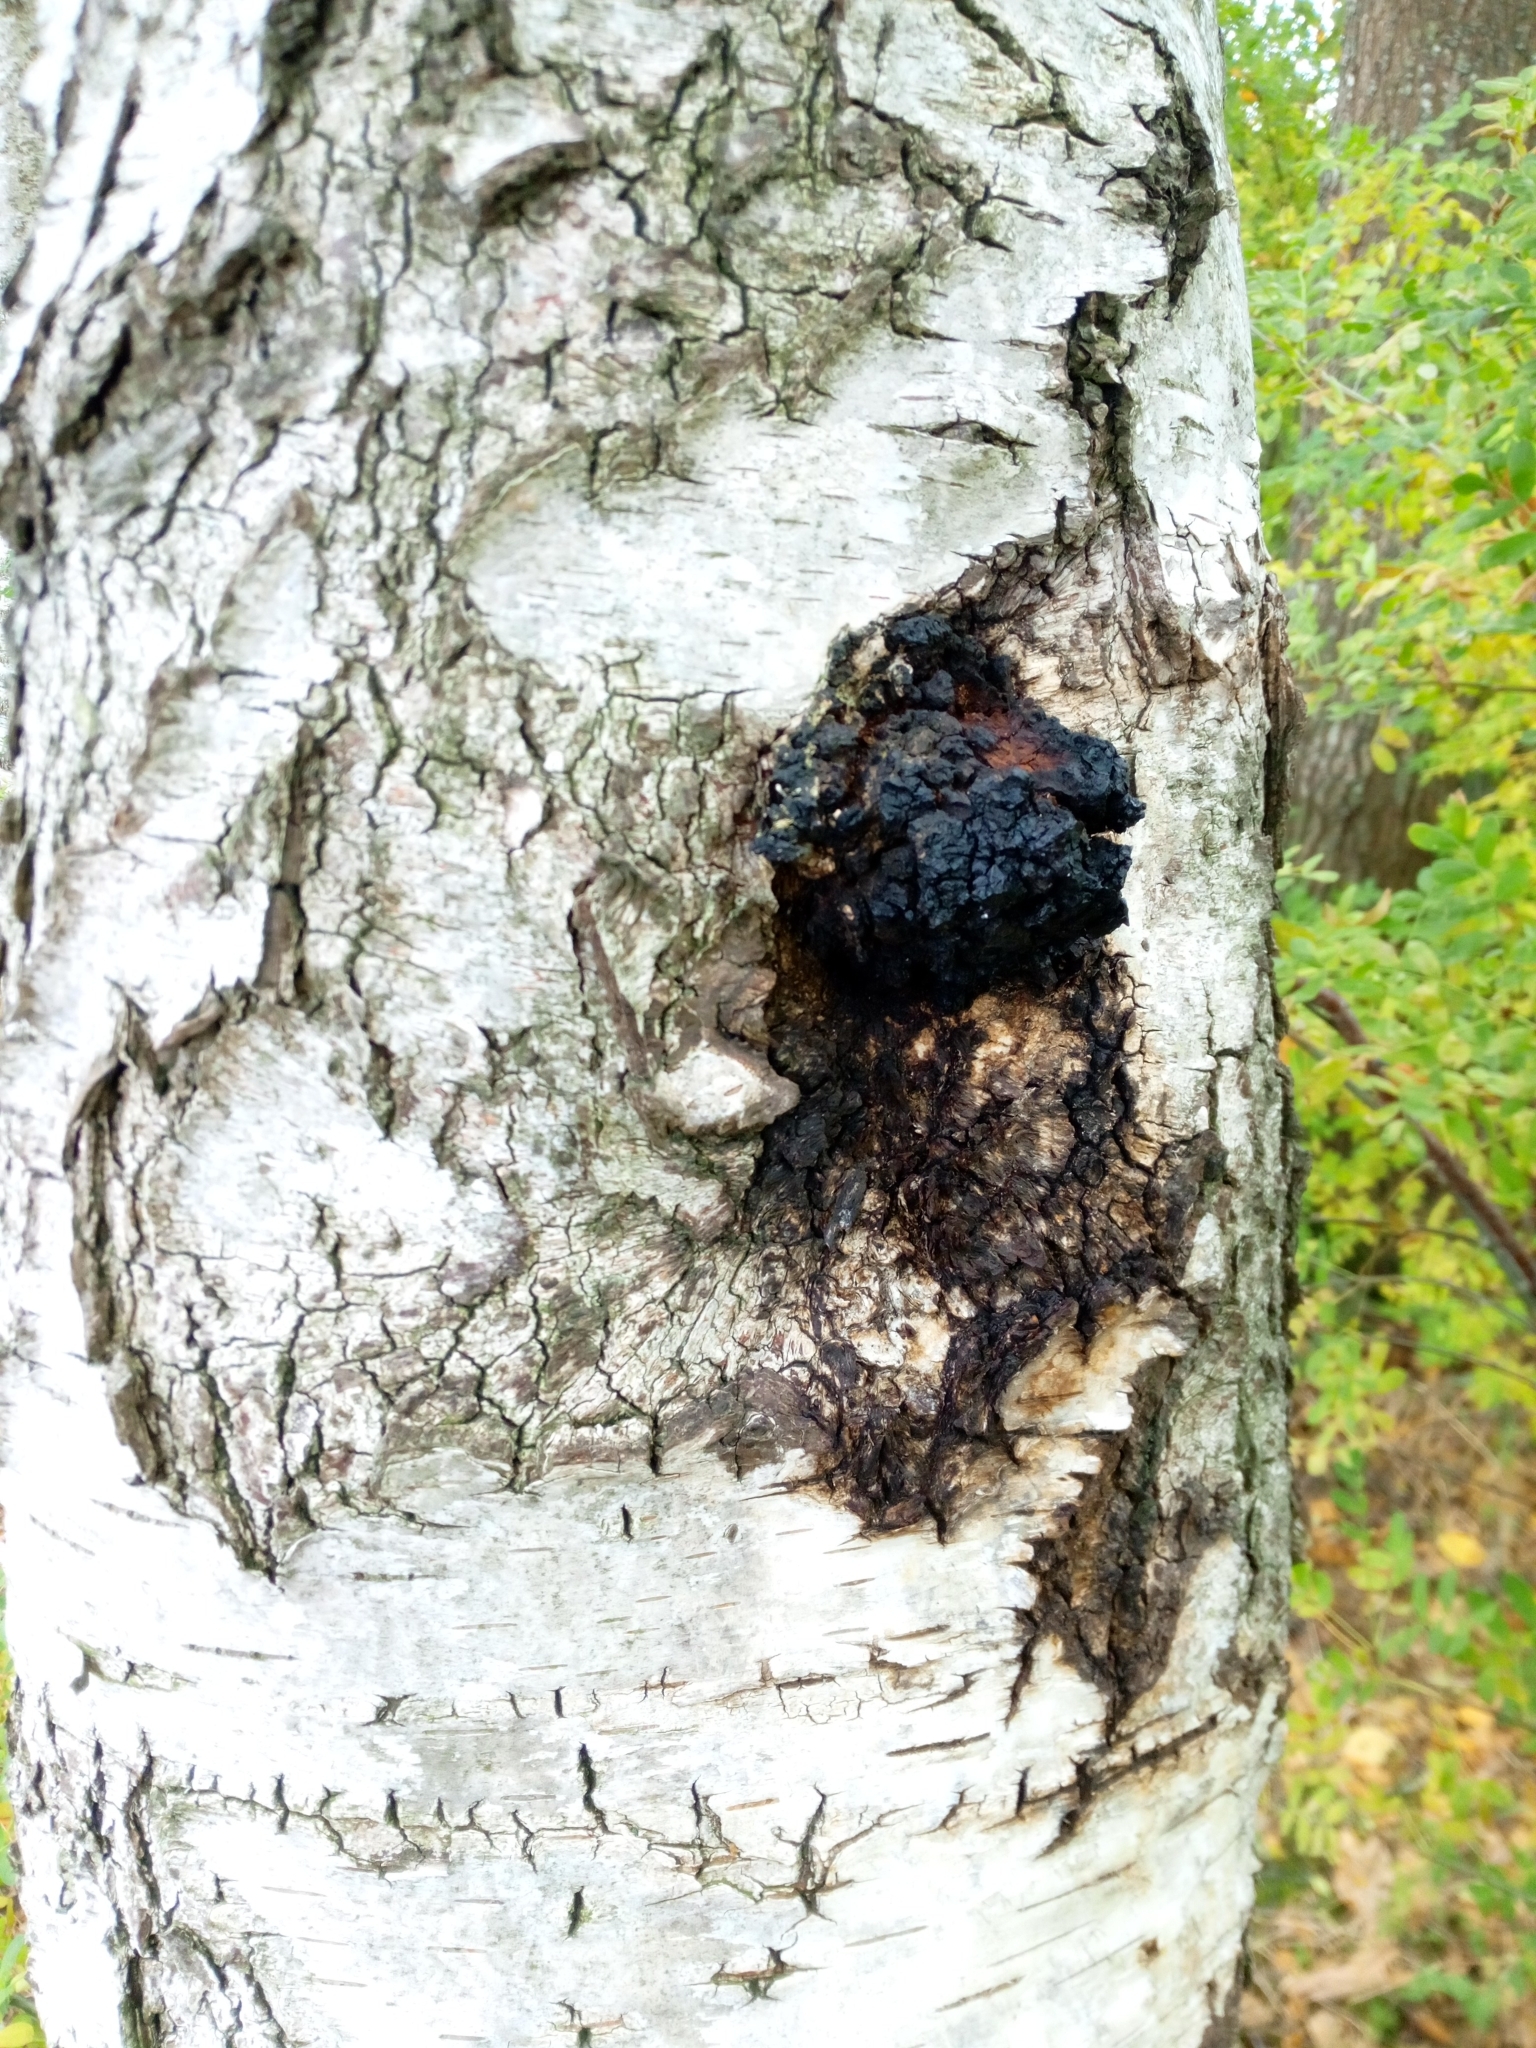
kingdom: Fungi
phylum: Basidiomycota
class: Agaricomycetes
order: Hymenochaetales
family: Hymenochaetaceae
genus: Inonotus
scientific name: Inonotus obliquus
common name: Chaga
